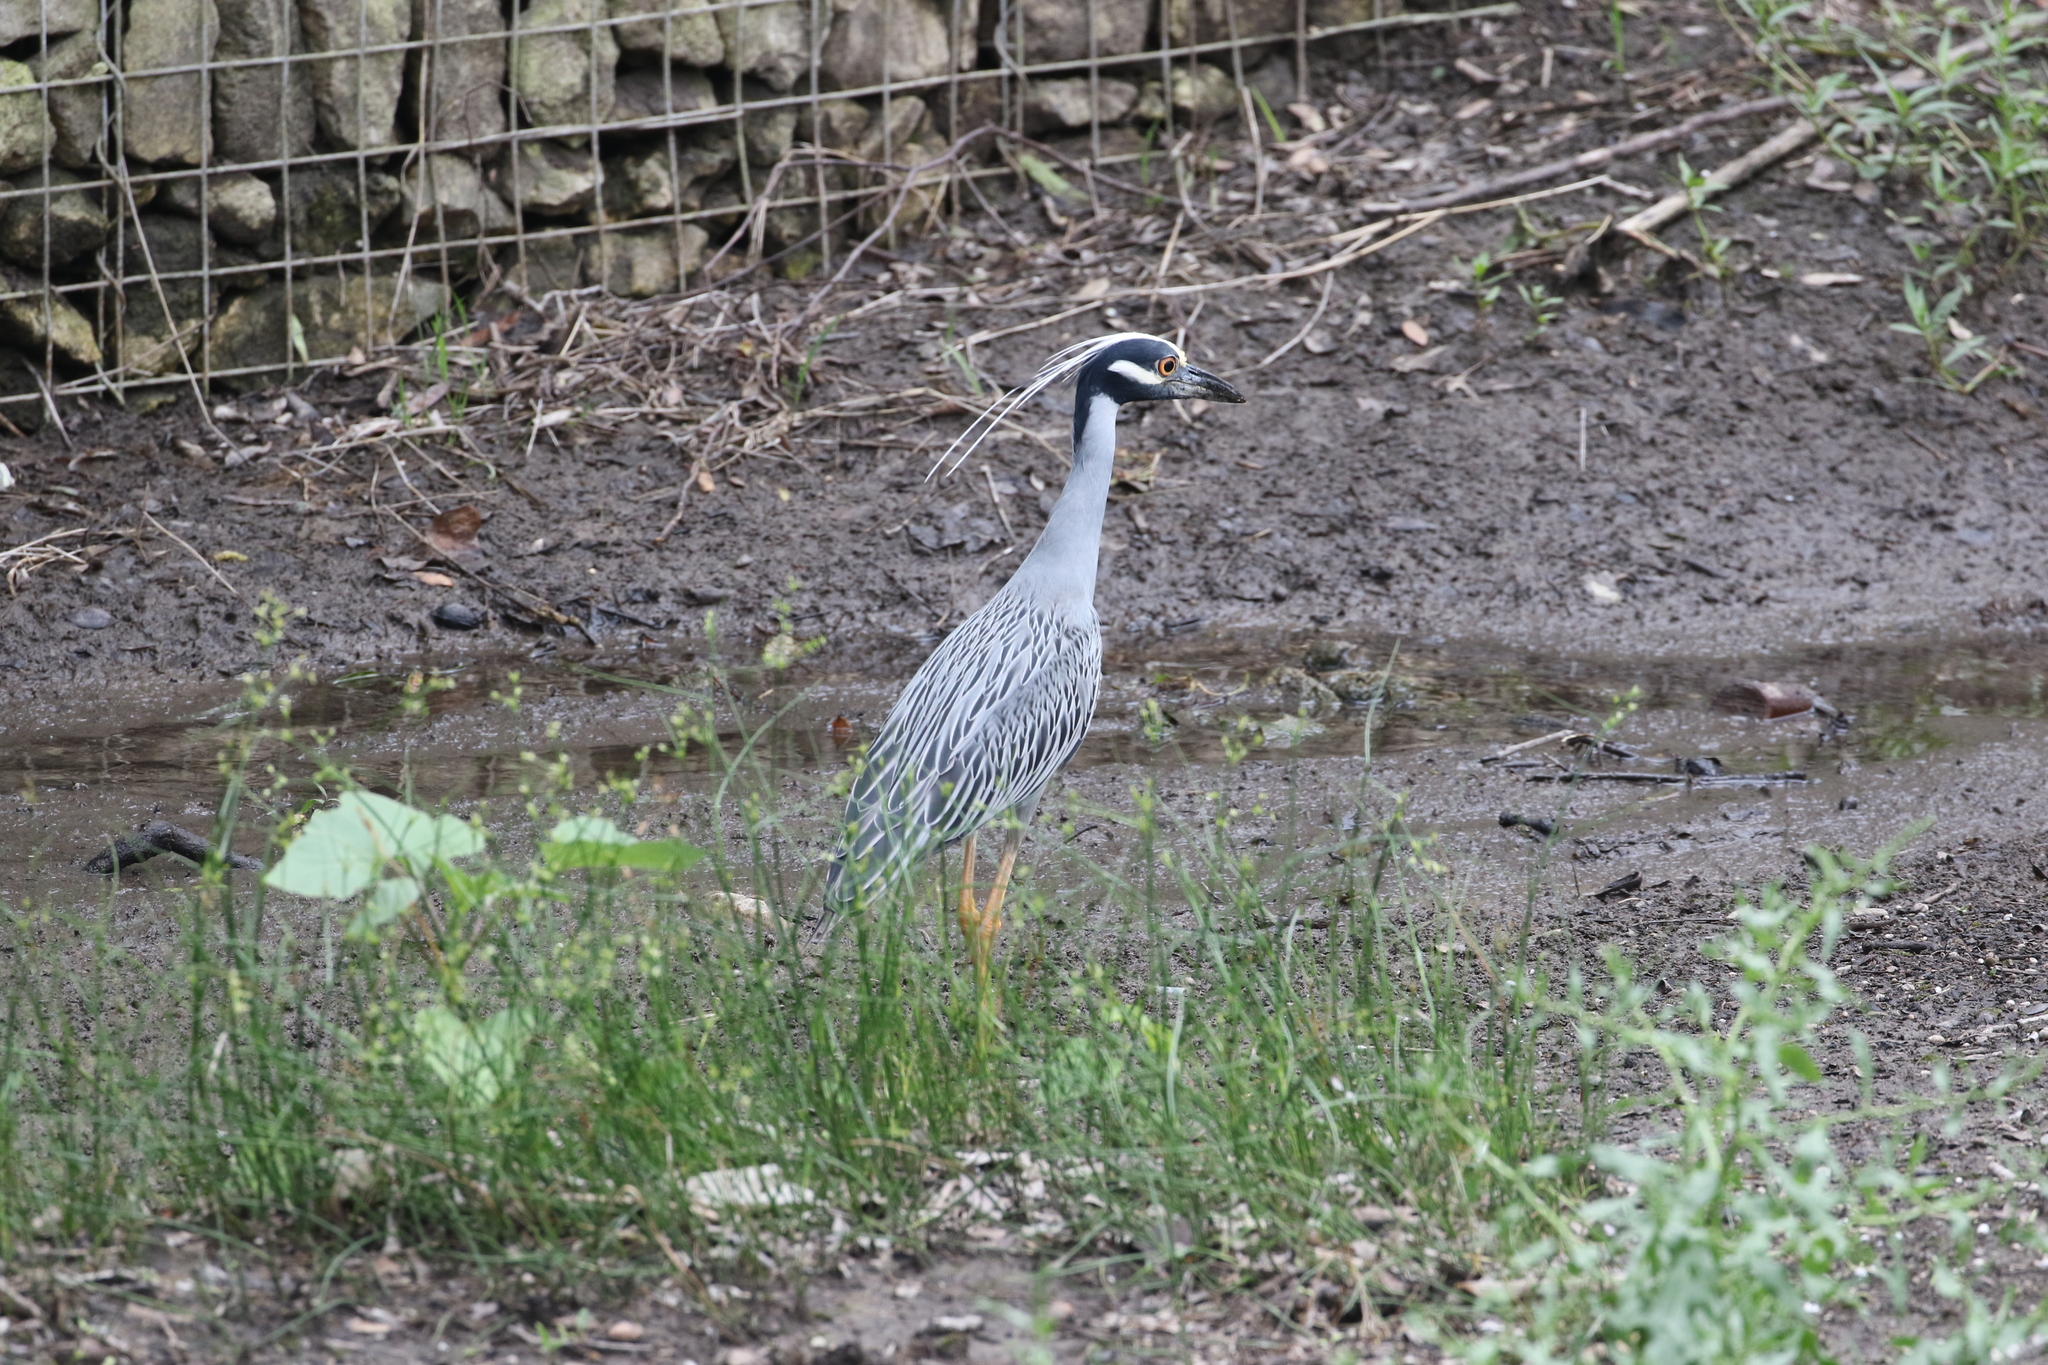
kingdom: Animalia
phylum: Chordata
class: Aves
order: Pelecaniformes
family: Ardeidae
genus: Nyctanassa
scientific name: Nyctanassa violacea
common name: Yellow-crowned night heron
